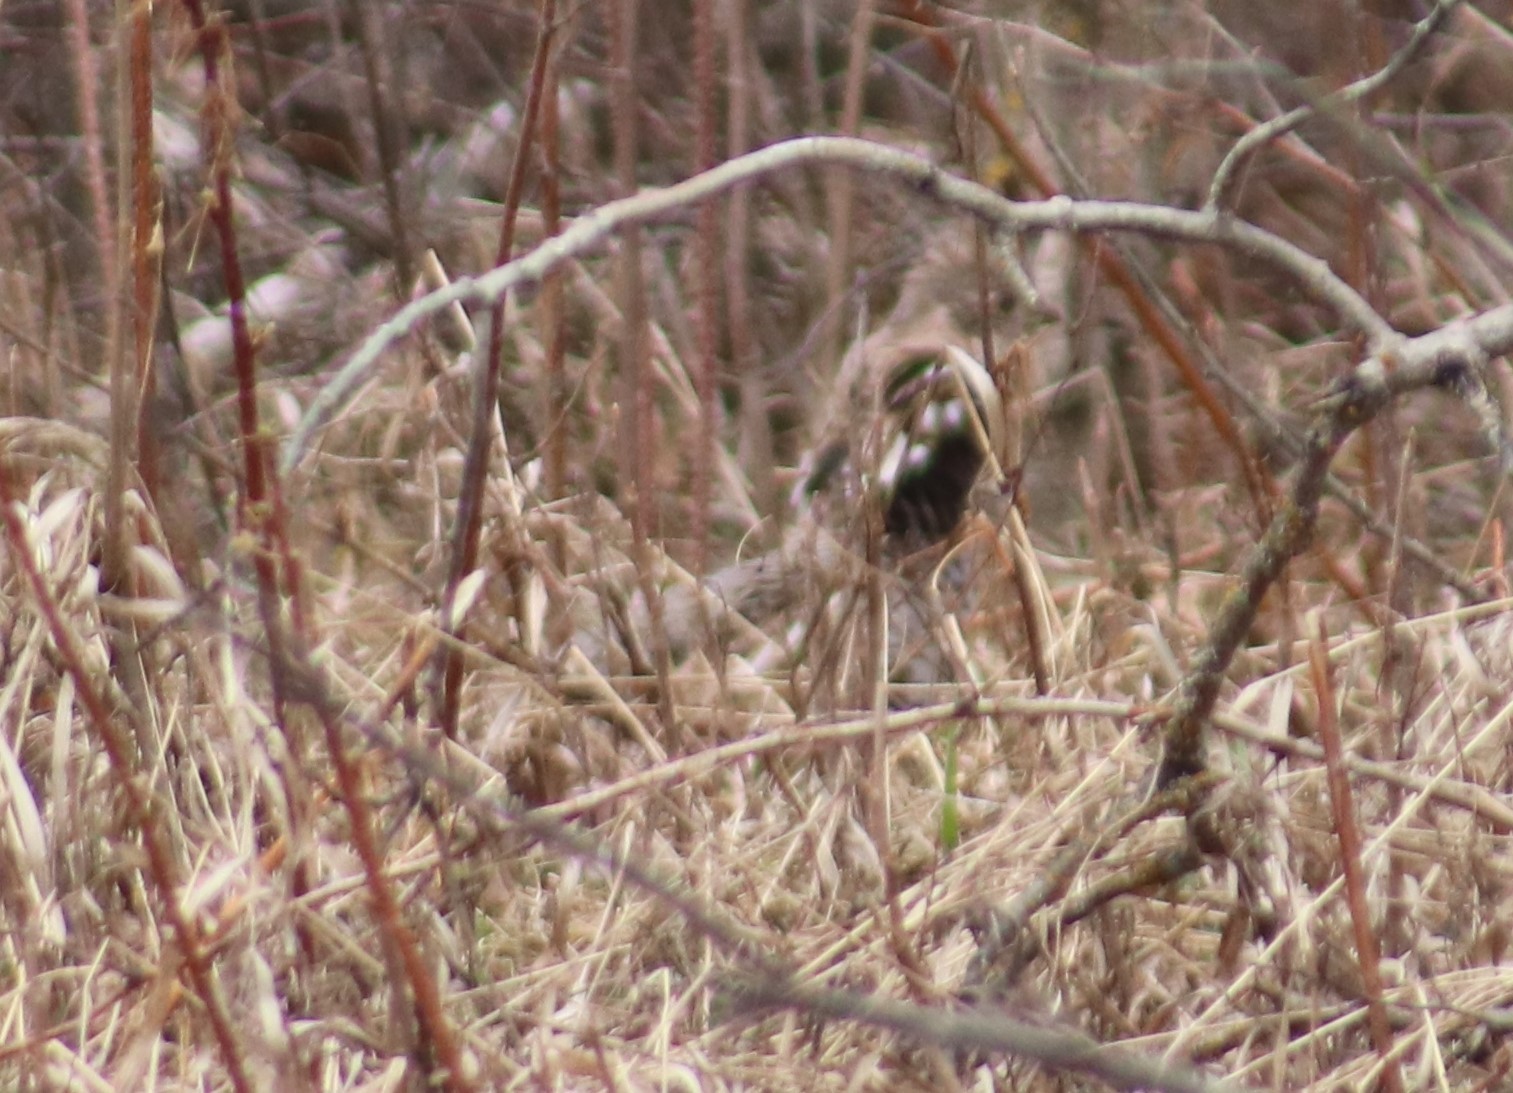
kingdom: Animalia
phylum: Chordata
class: Aves
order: Galliformes
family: Phasianidae
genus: Bonasa
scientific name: Bonasa umbellus
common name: Ruffed grouse
